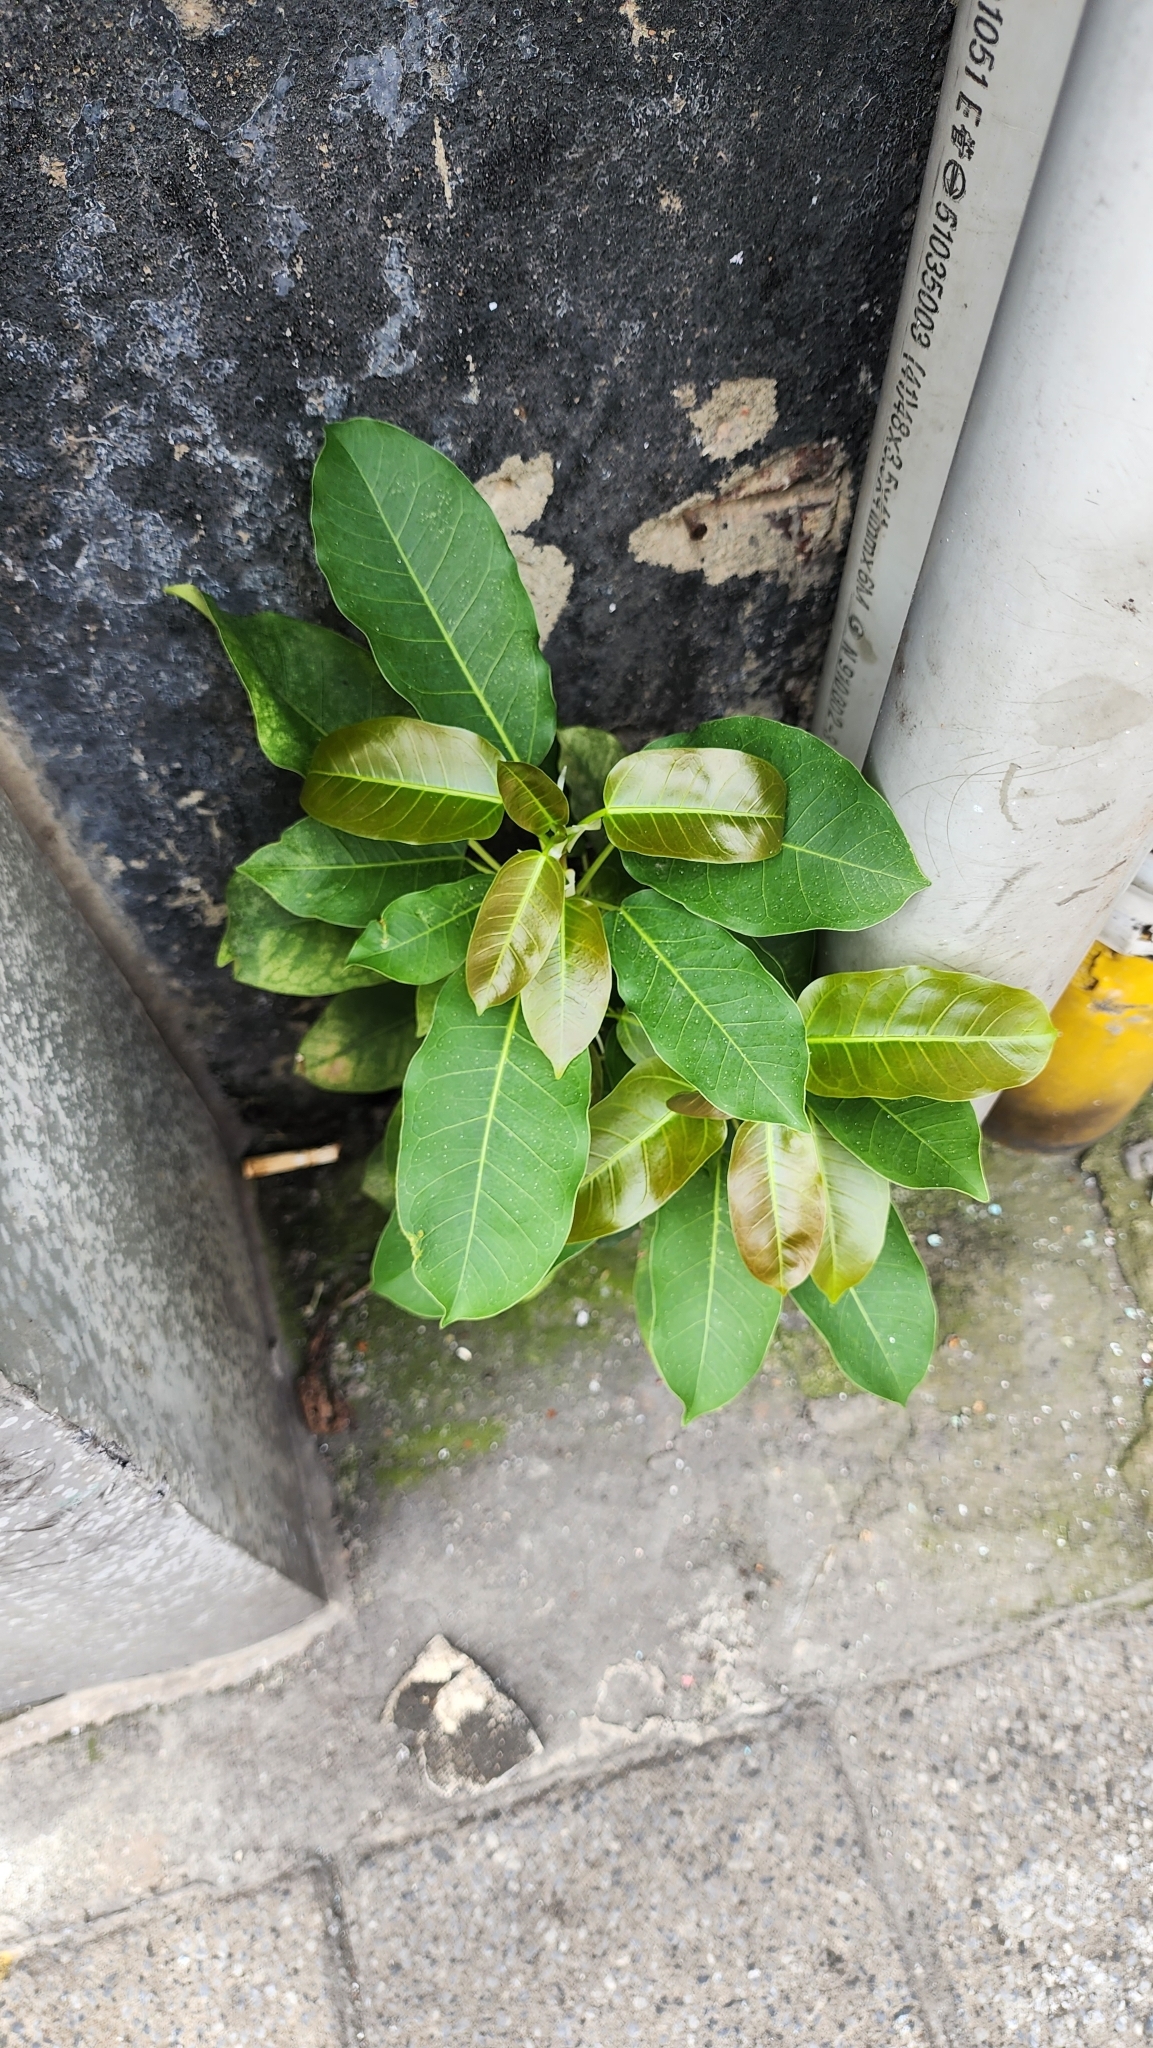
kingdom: Plantae
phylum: Tracheophyta
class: Magnoliopsida
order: Rosales
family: Moraceae
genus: Ficus
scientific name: Ficus subpisocarpa
